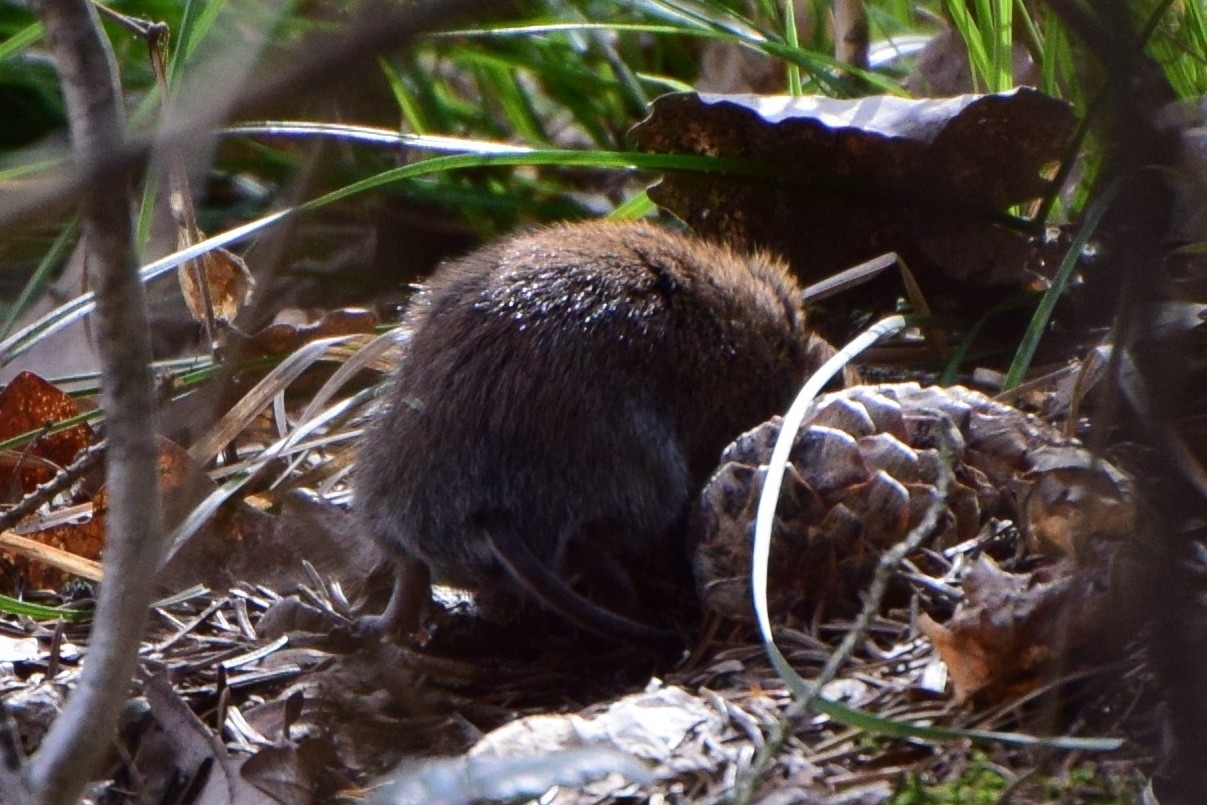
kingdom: Animalia
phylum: Chordata
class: Mammalia
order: Rodentia
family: Cricetidae
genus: Myodes
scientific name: Myodes glareolus
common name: Bank vole
